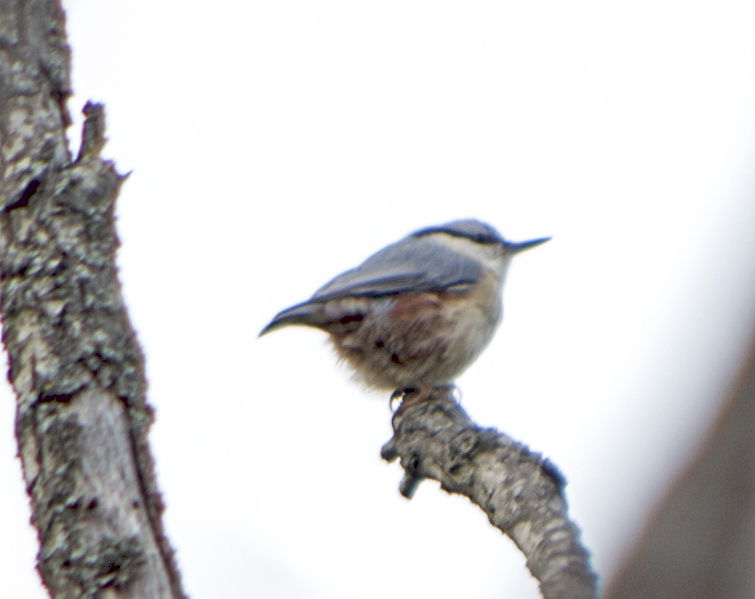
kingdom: Animalia
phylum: Chordata
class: Aves
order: Passeriformes
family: Sittidae
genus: Sitta
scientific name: Sitta europaea
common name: Eurasian nuthatch
